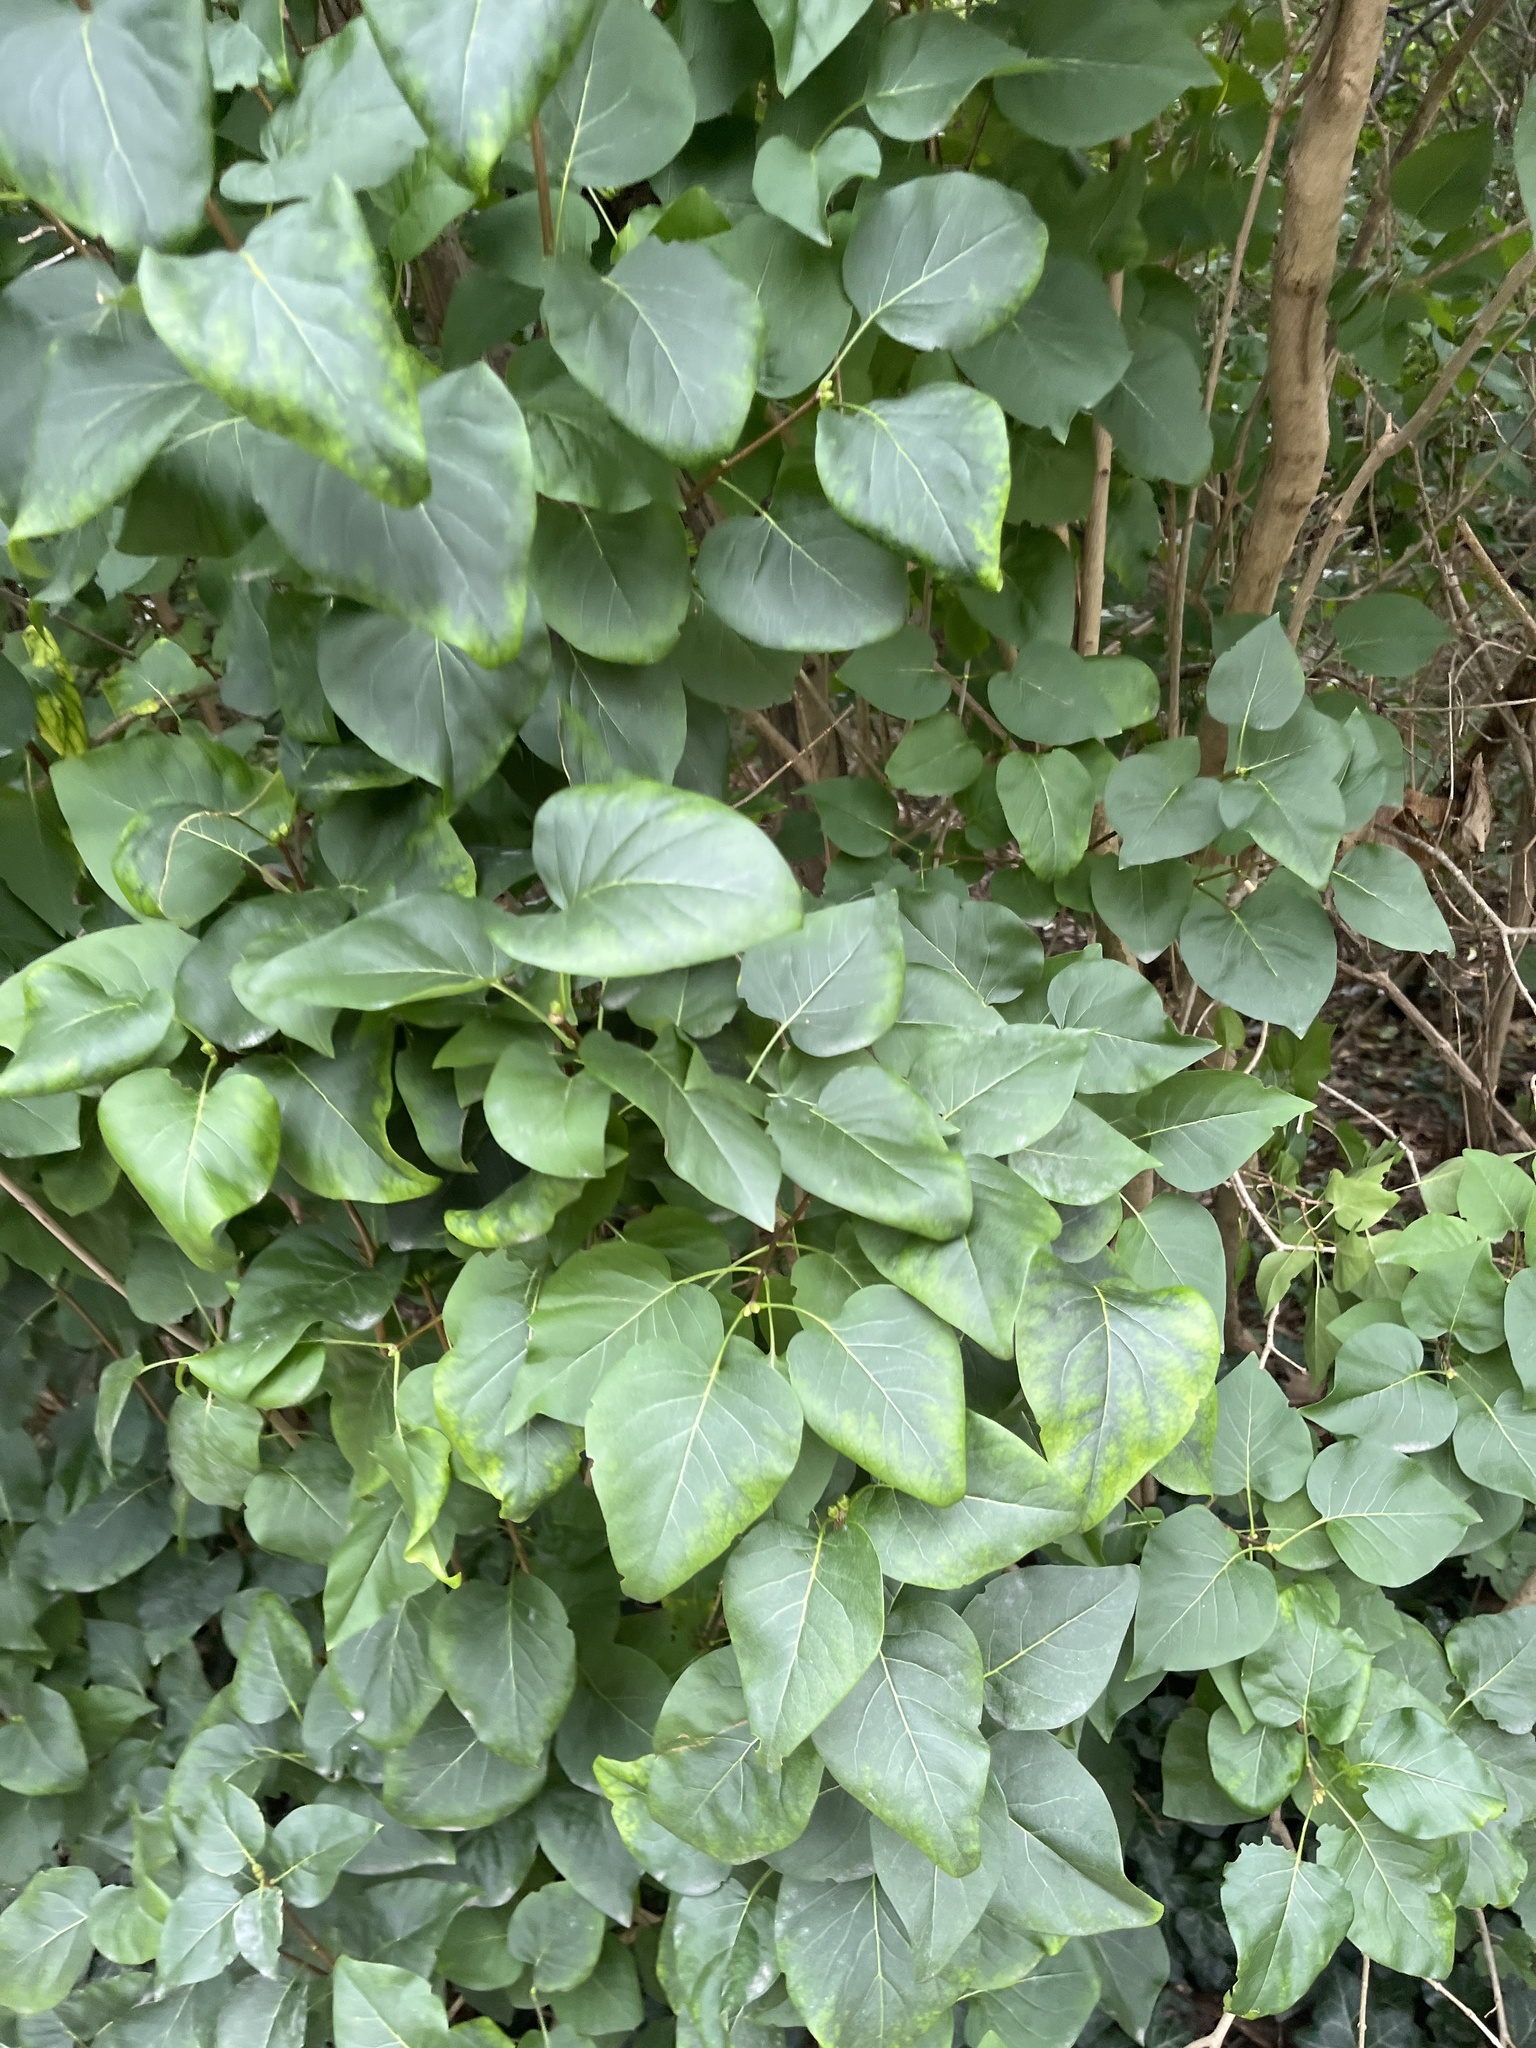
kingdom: Plantae
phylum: Tracheophyta
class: Magnoliopsida
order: Lamiales
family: Oleaceae
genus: Syringa
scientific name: Syringa vulgaris
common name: Common lilac
